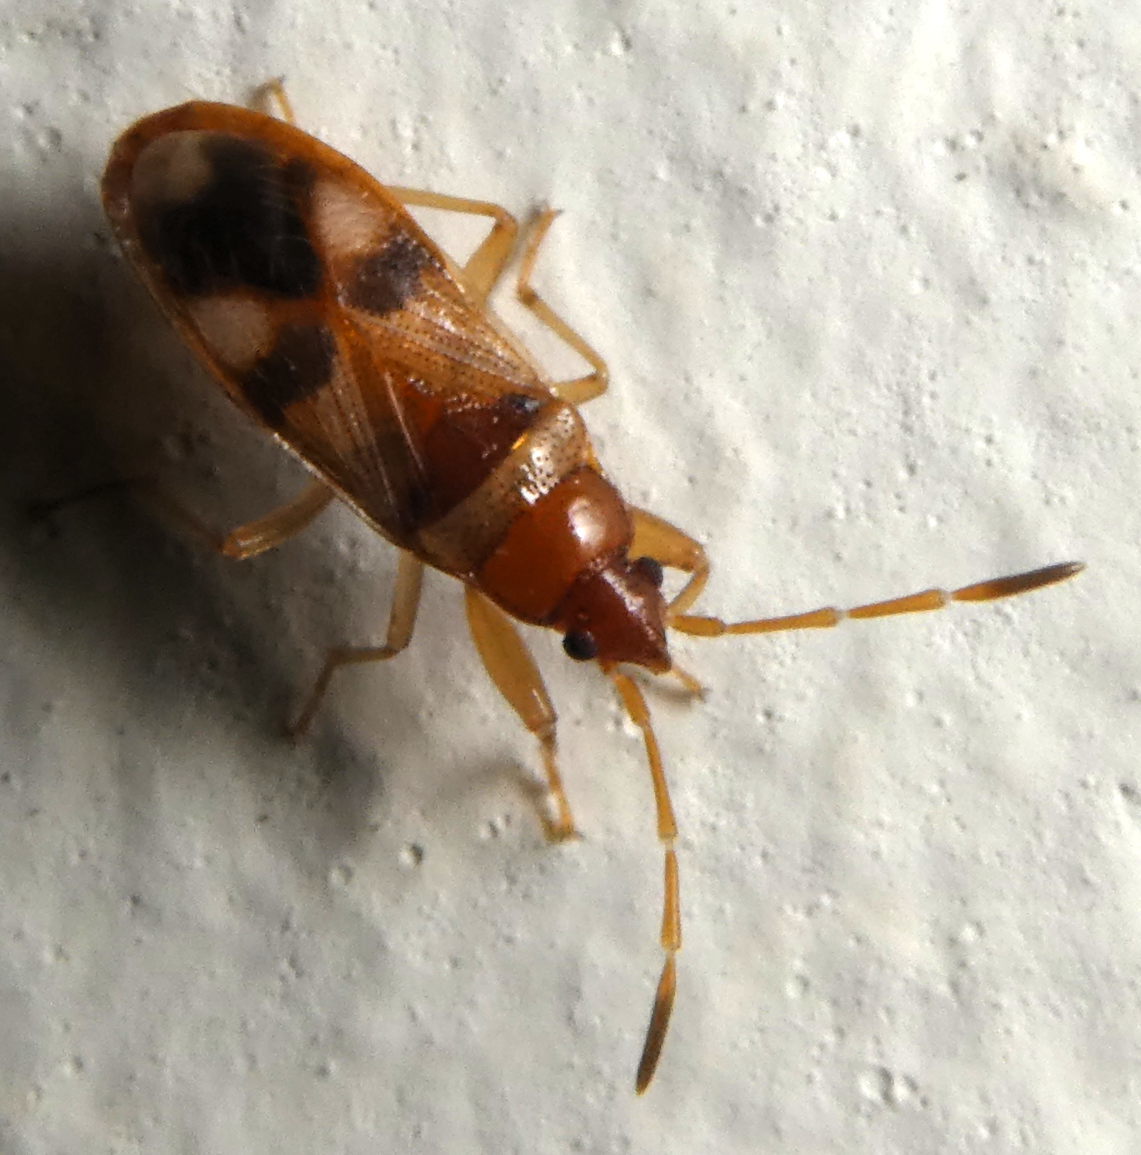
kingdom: Animalia
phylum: Arthropoda
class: Insecta
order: Hemiptera
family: Rhyparochromidae
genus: Tethallotrum
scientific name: Tethallotrum heteronotus
